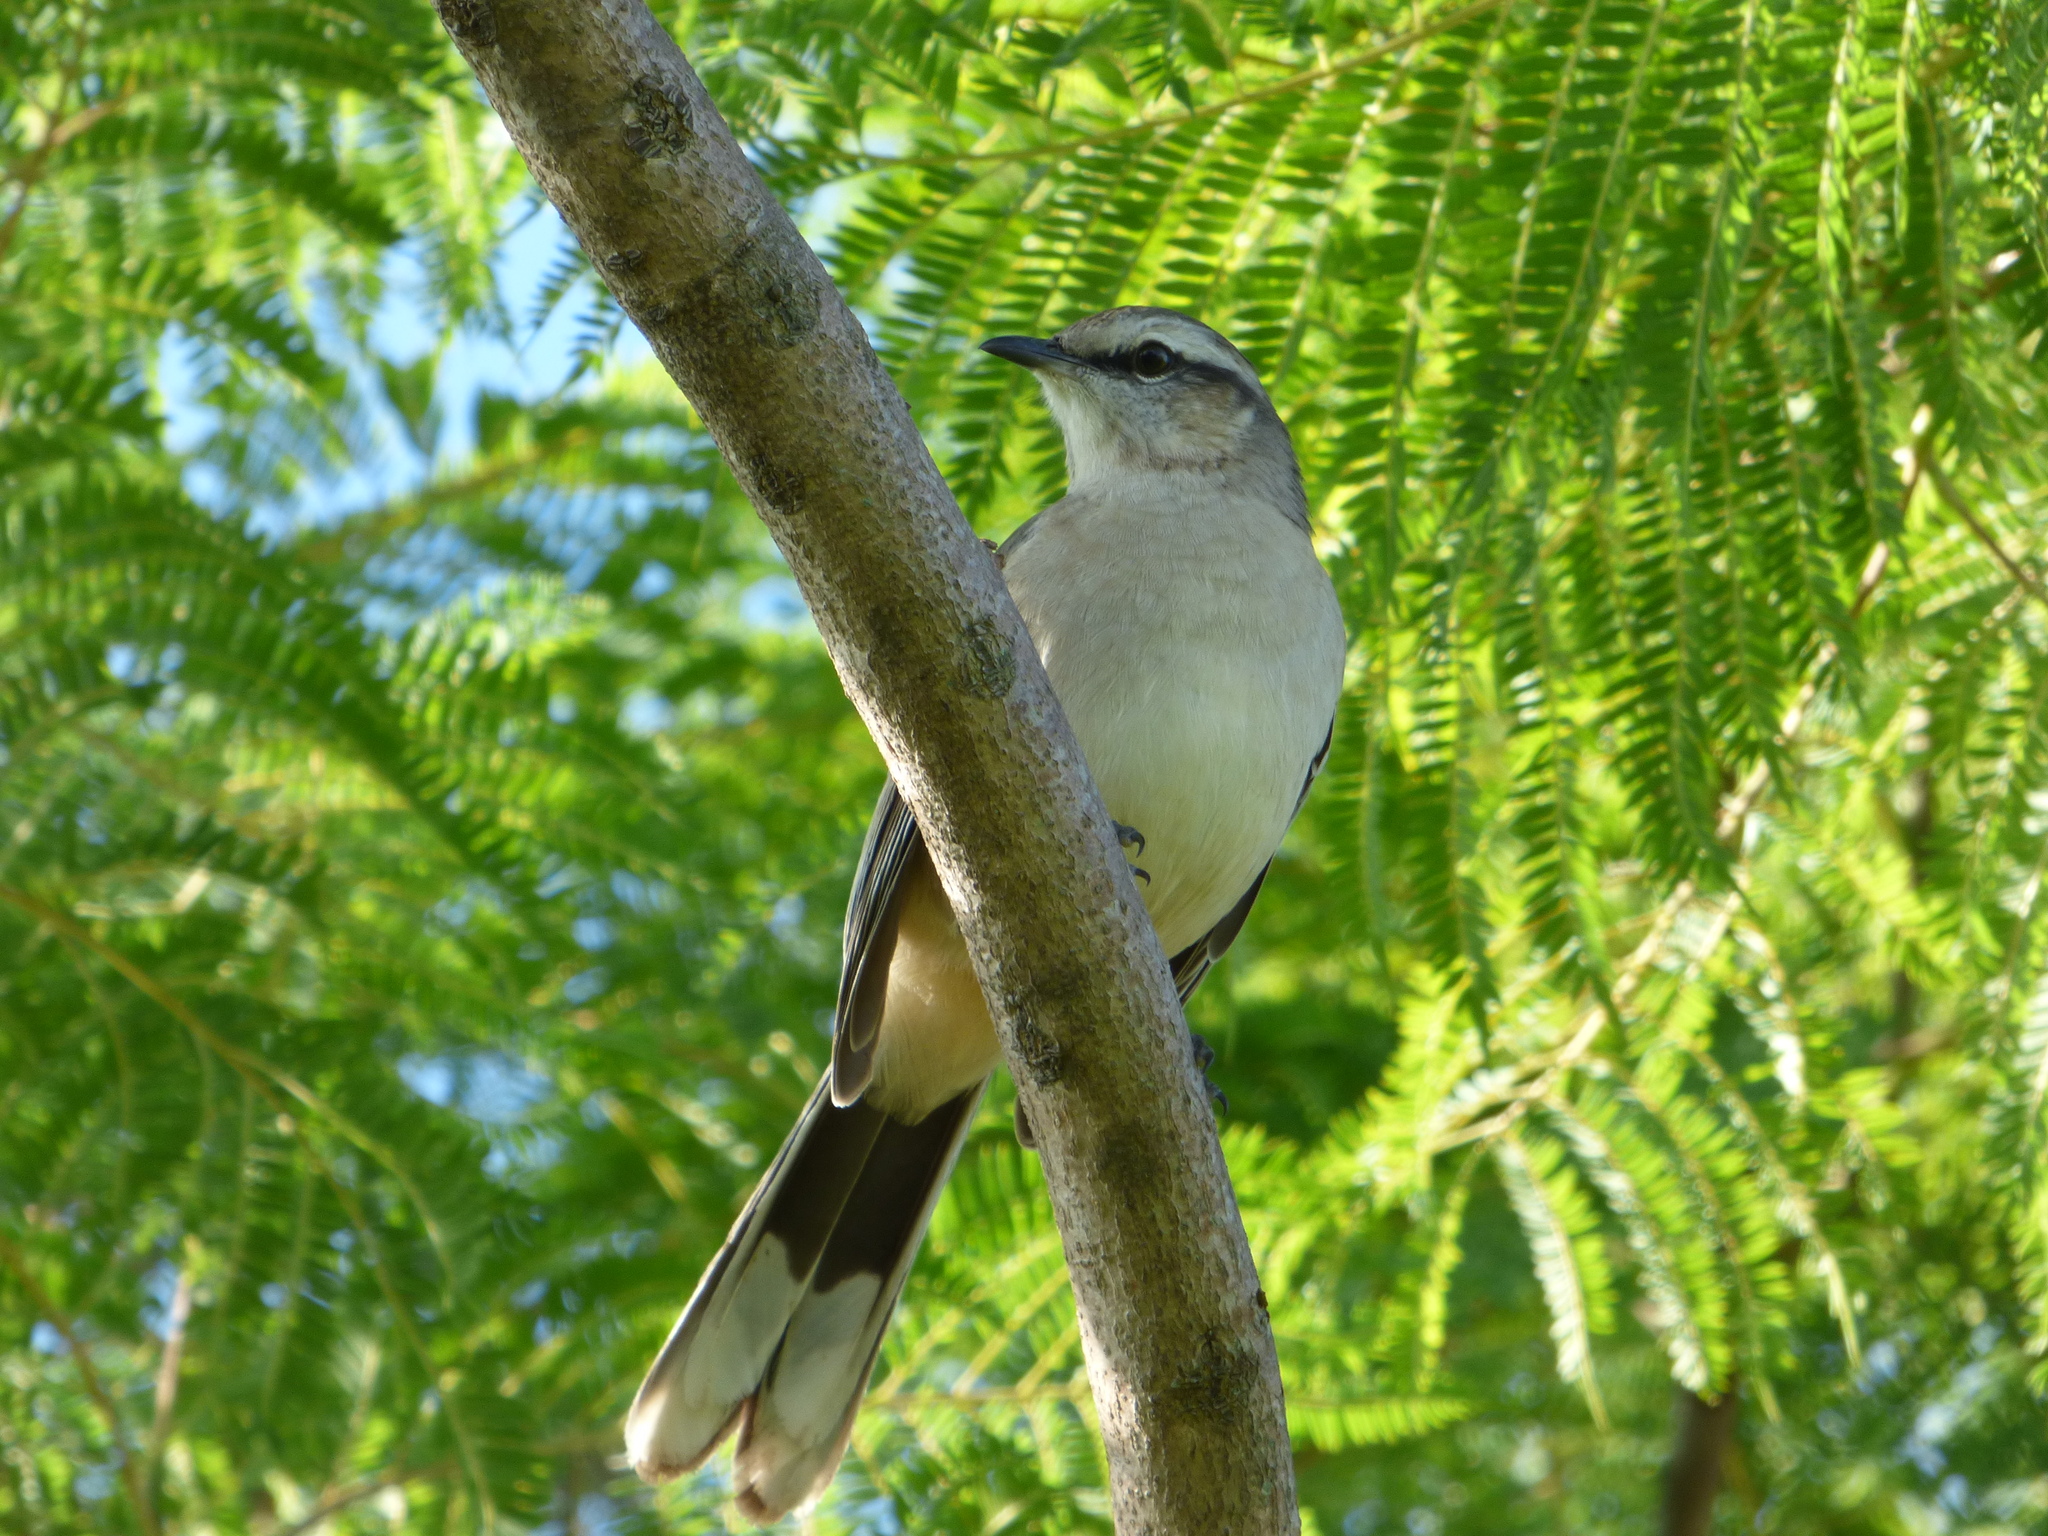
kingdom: Animalia
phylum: Chordata
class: Aves
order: Passeriformes
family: Mimidae
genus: Mimus
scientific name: Mimus saturninus
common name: Chalk-browed mockingbird
